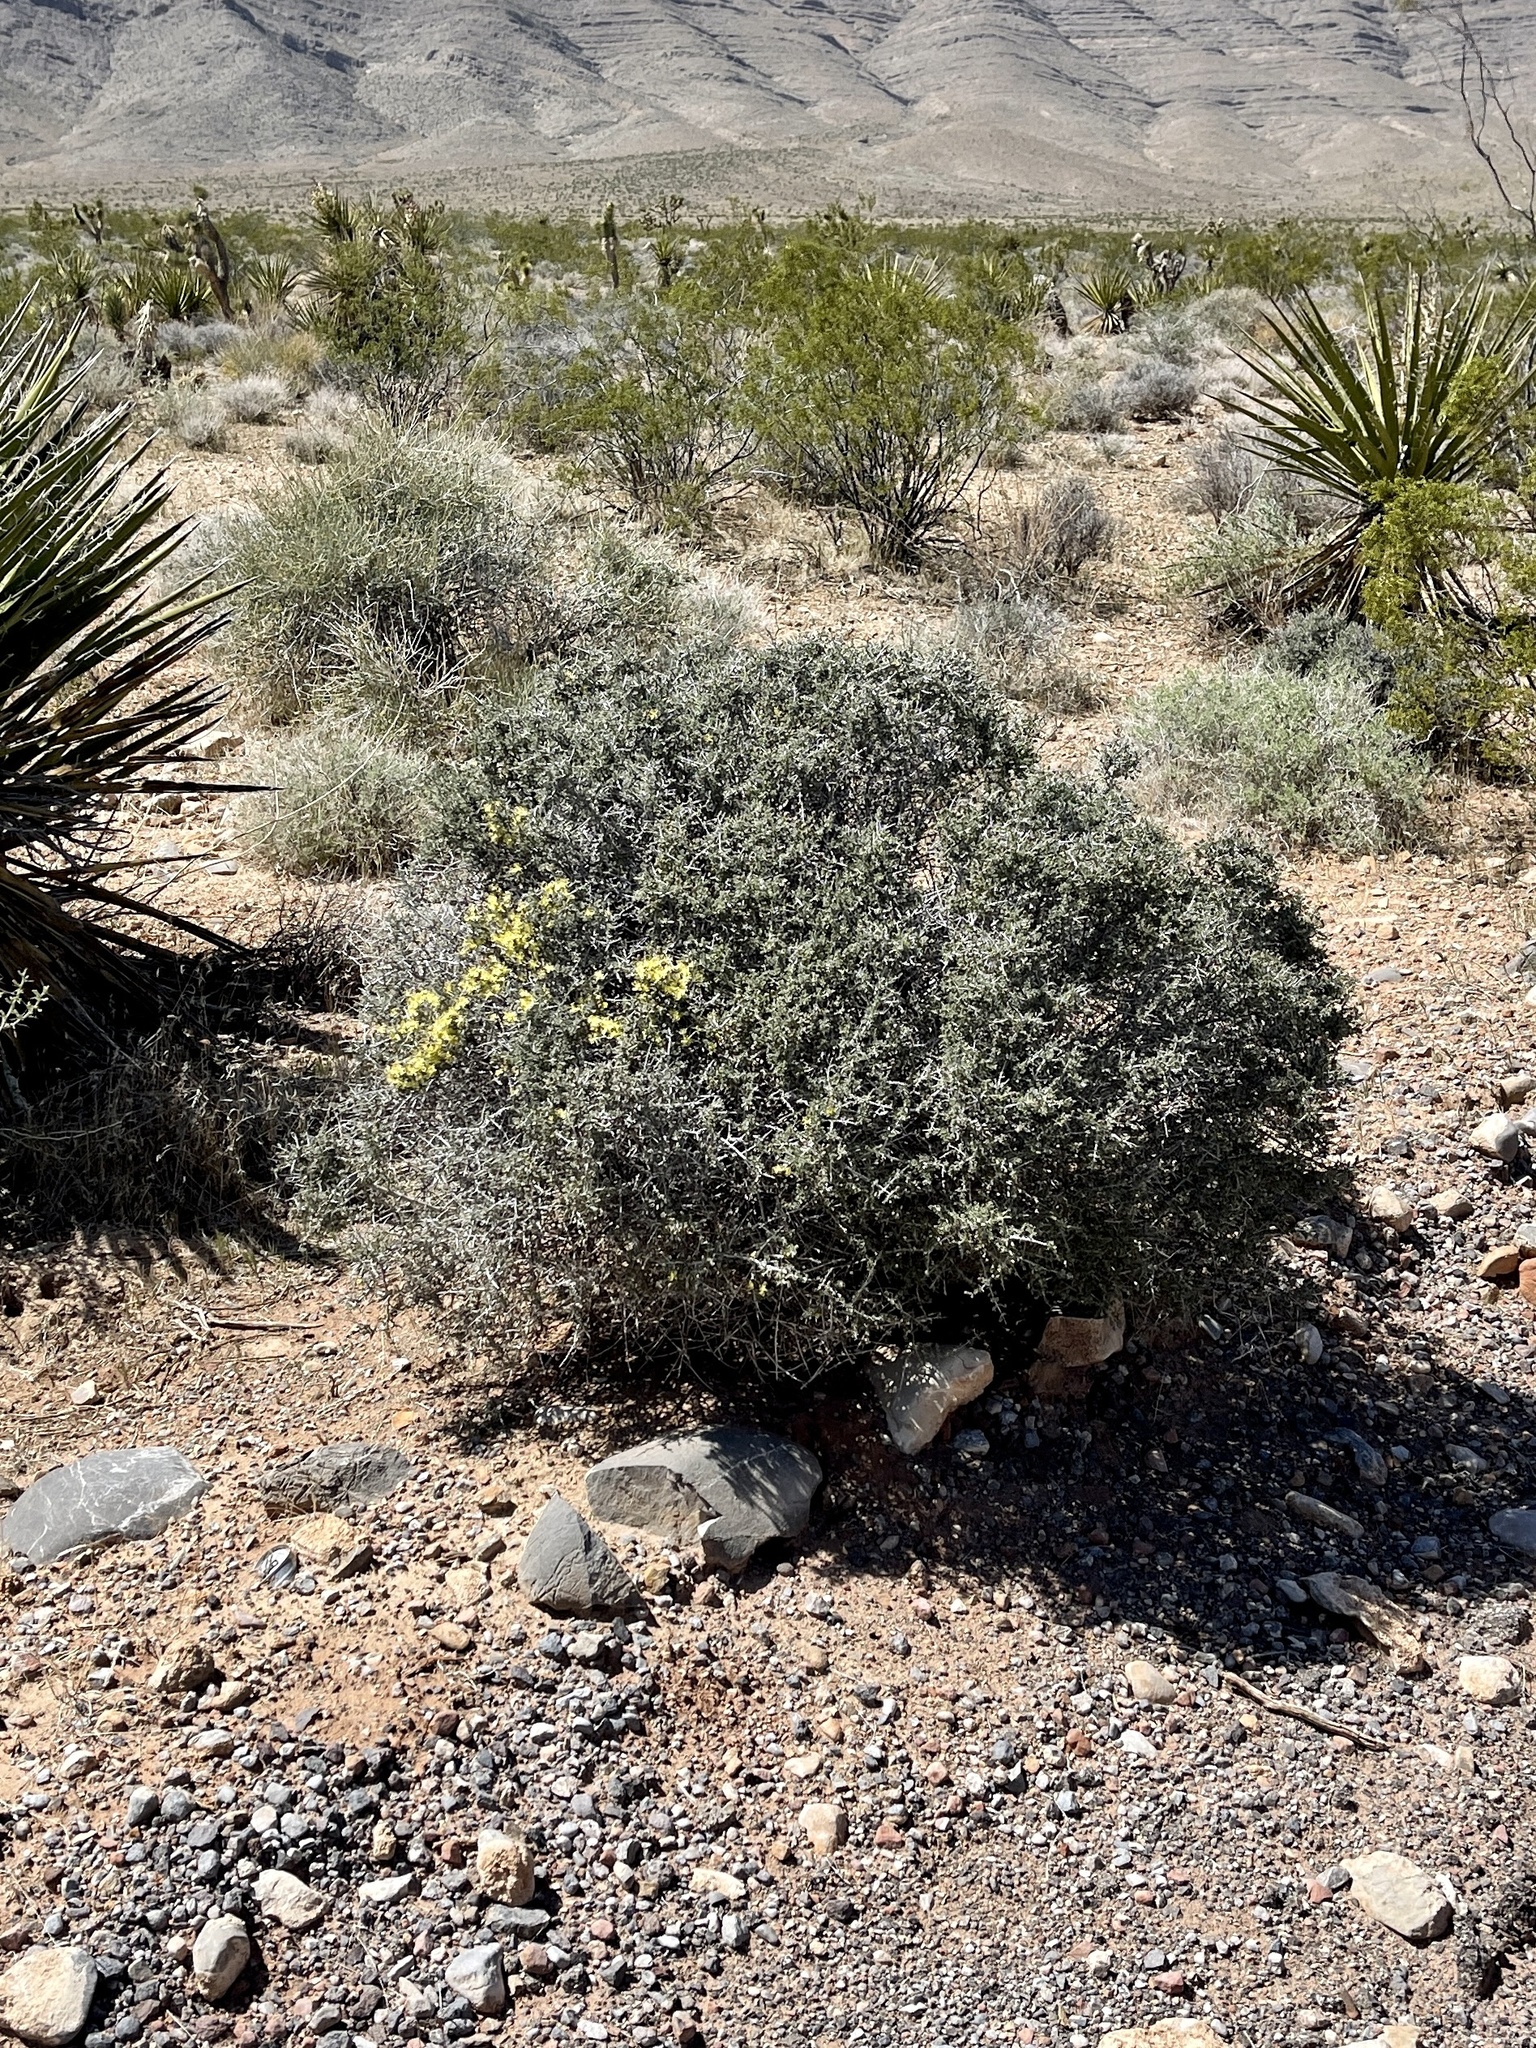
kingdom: Plantae
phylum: Tracheophyta
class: Magnoliopsida
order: Rosales
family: Rosaceae
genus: Coleogyne
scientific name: Coleogyne ramosissima
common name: Blackbrush
